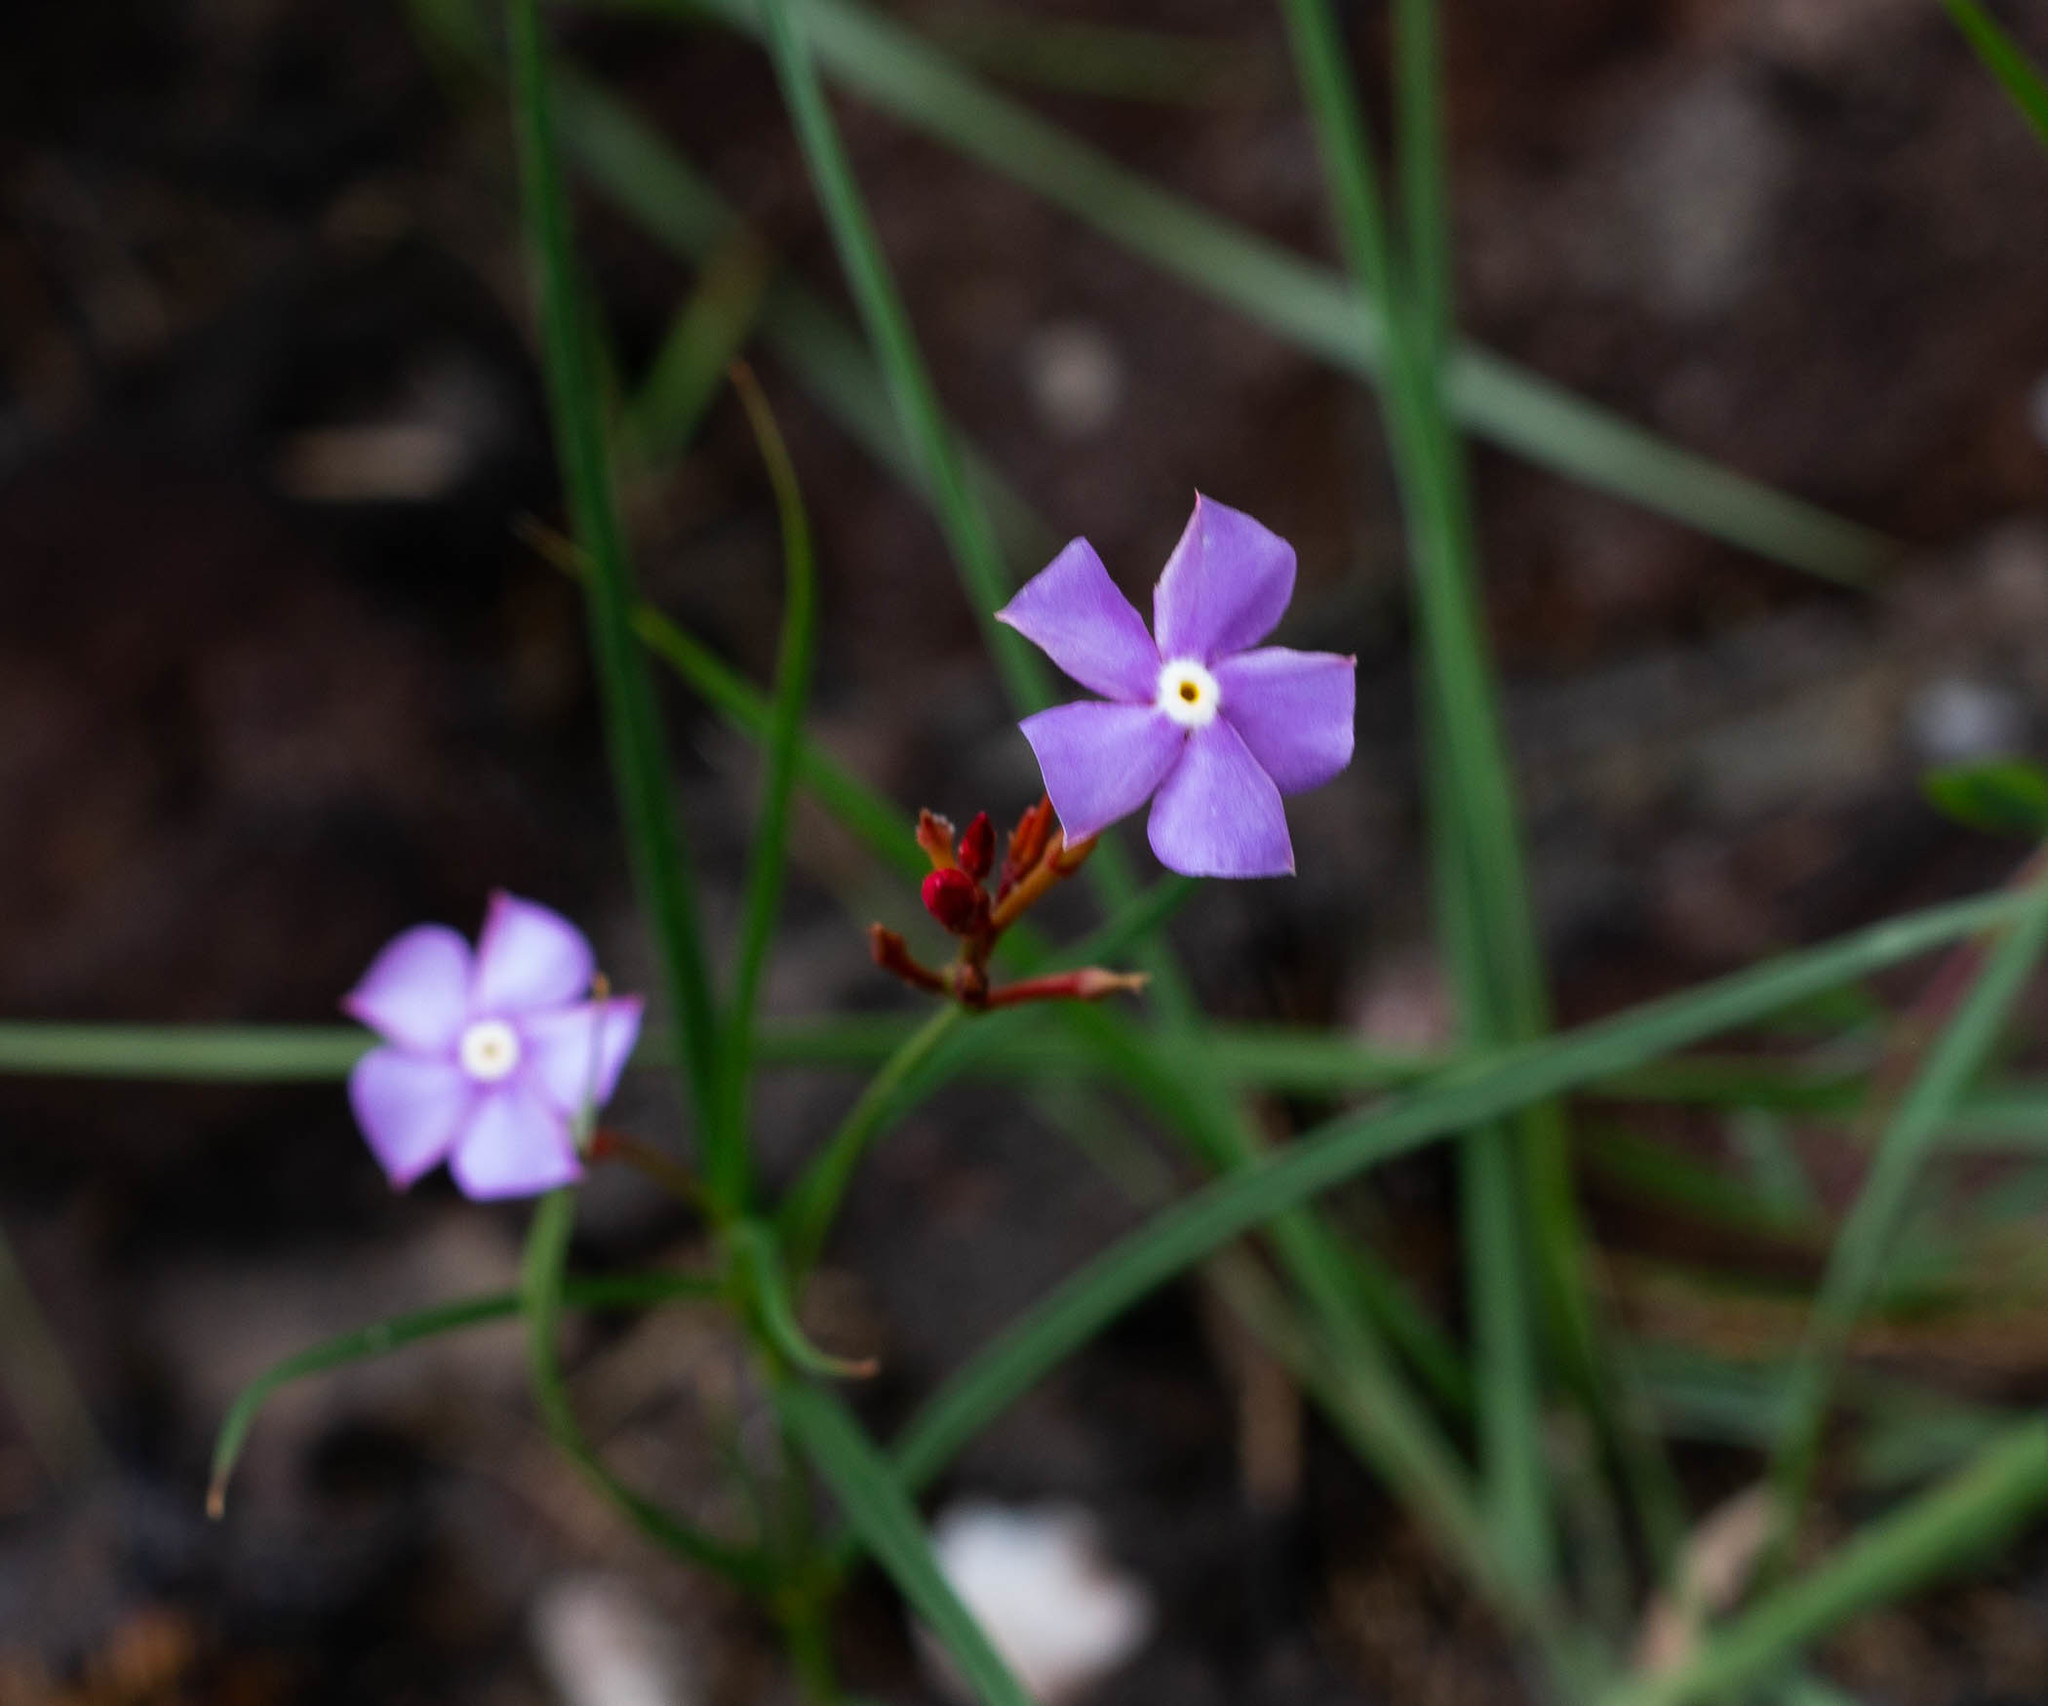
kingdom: Plantae
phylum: Tracheophyta
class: Magnoliopsida
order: Gentianales
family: Apocynaceae
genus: Mandevilla
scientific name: Mandevilla tenuifolia
